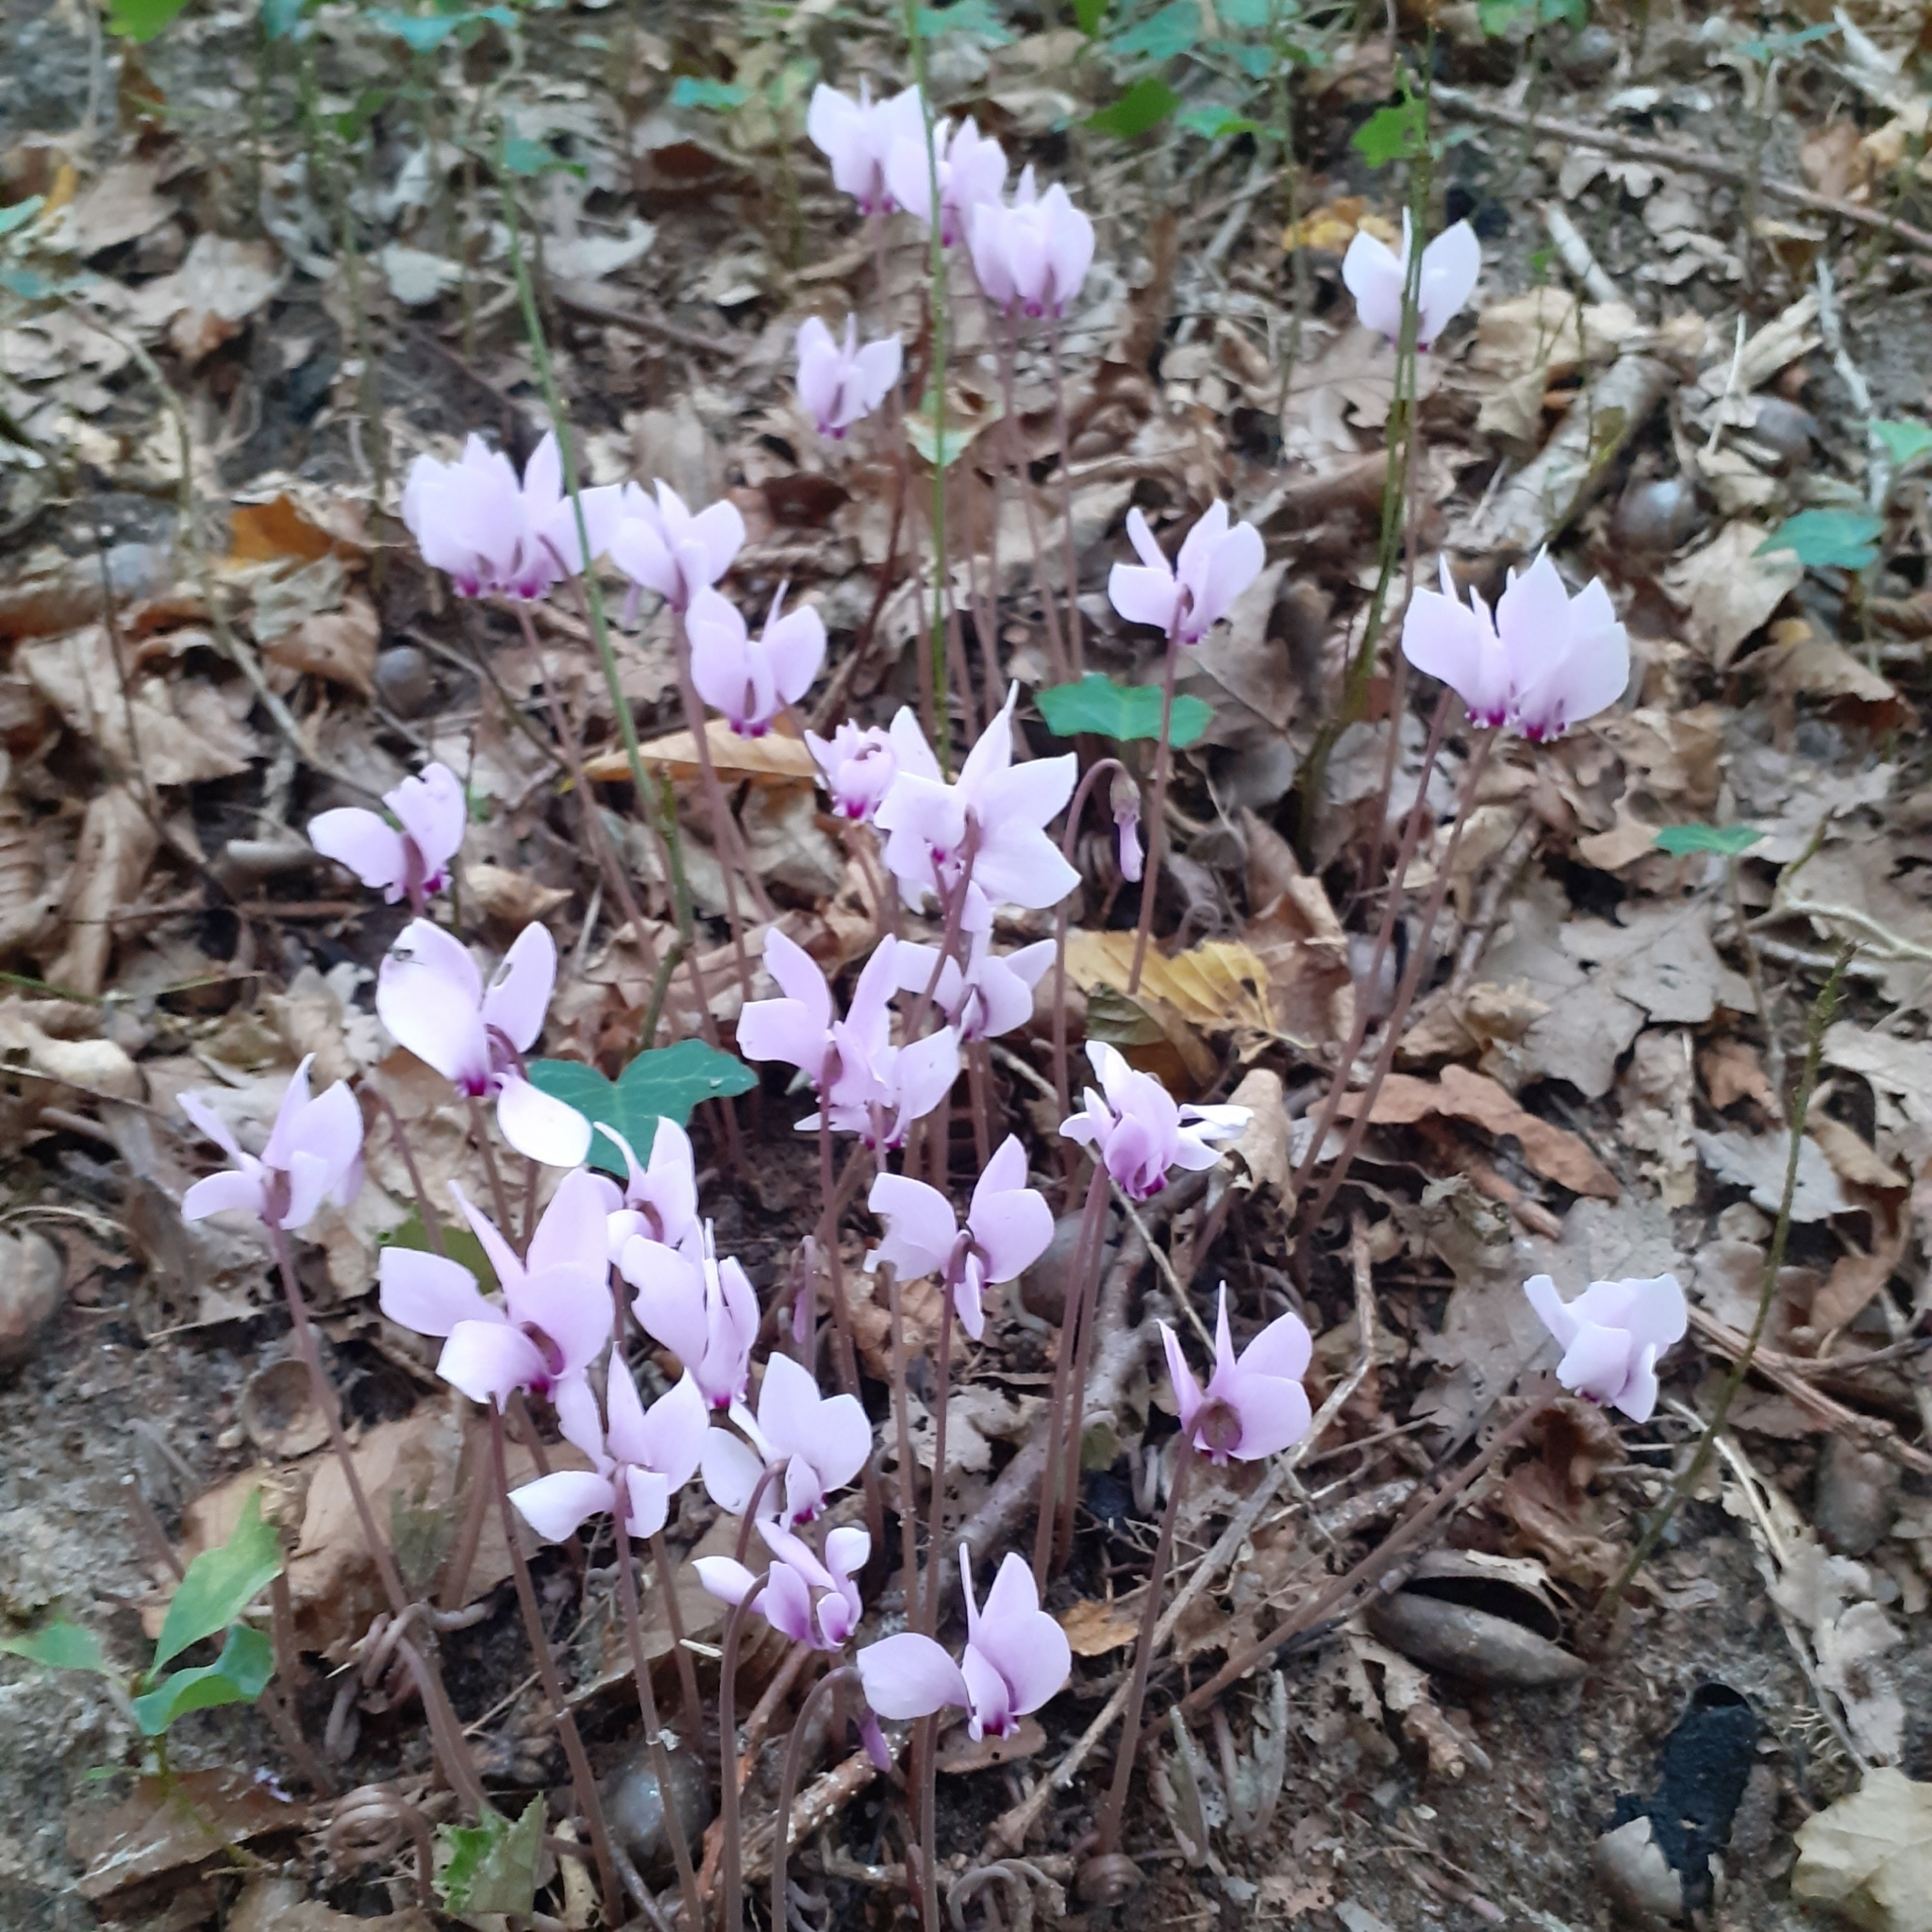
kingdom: Plantae
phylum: Tracheophyta
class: Magnoliopsida
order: Ericales
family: Primulaceae
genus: Cyclamen
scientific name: Cyclamen hederifolium
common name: Sowbread
